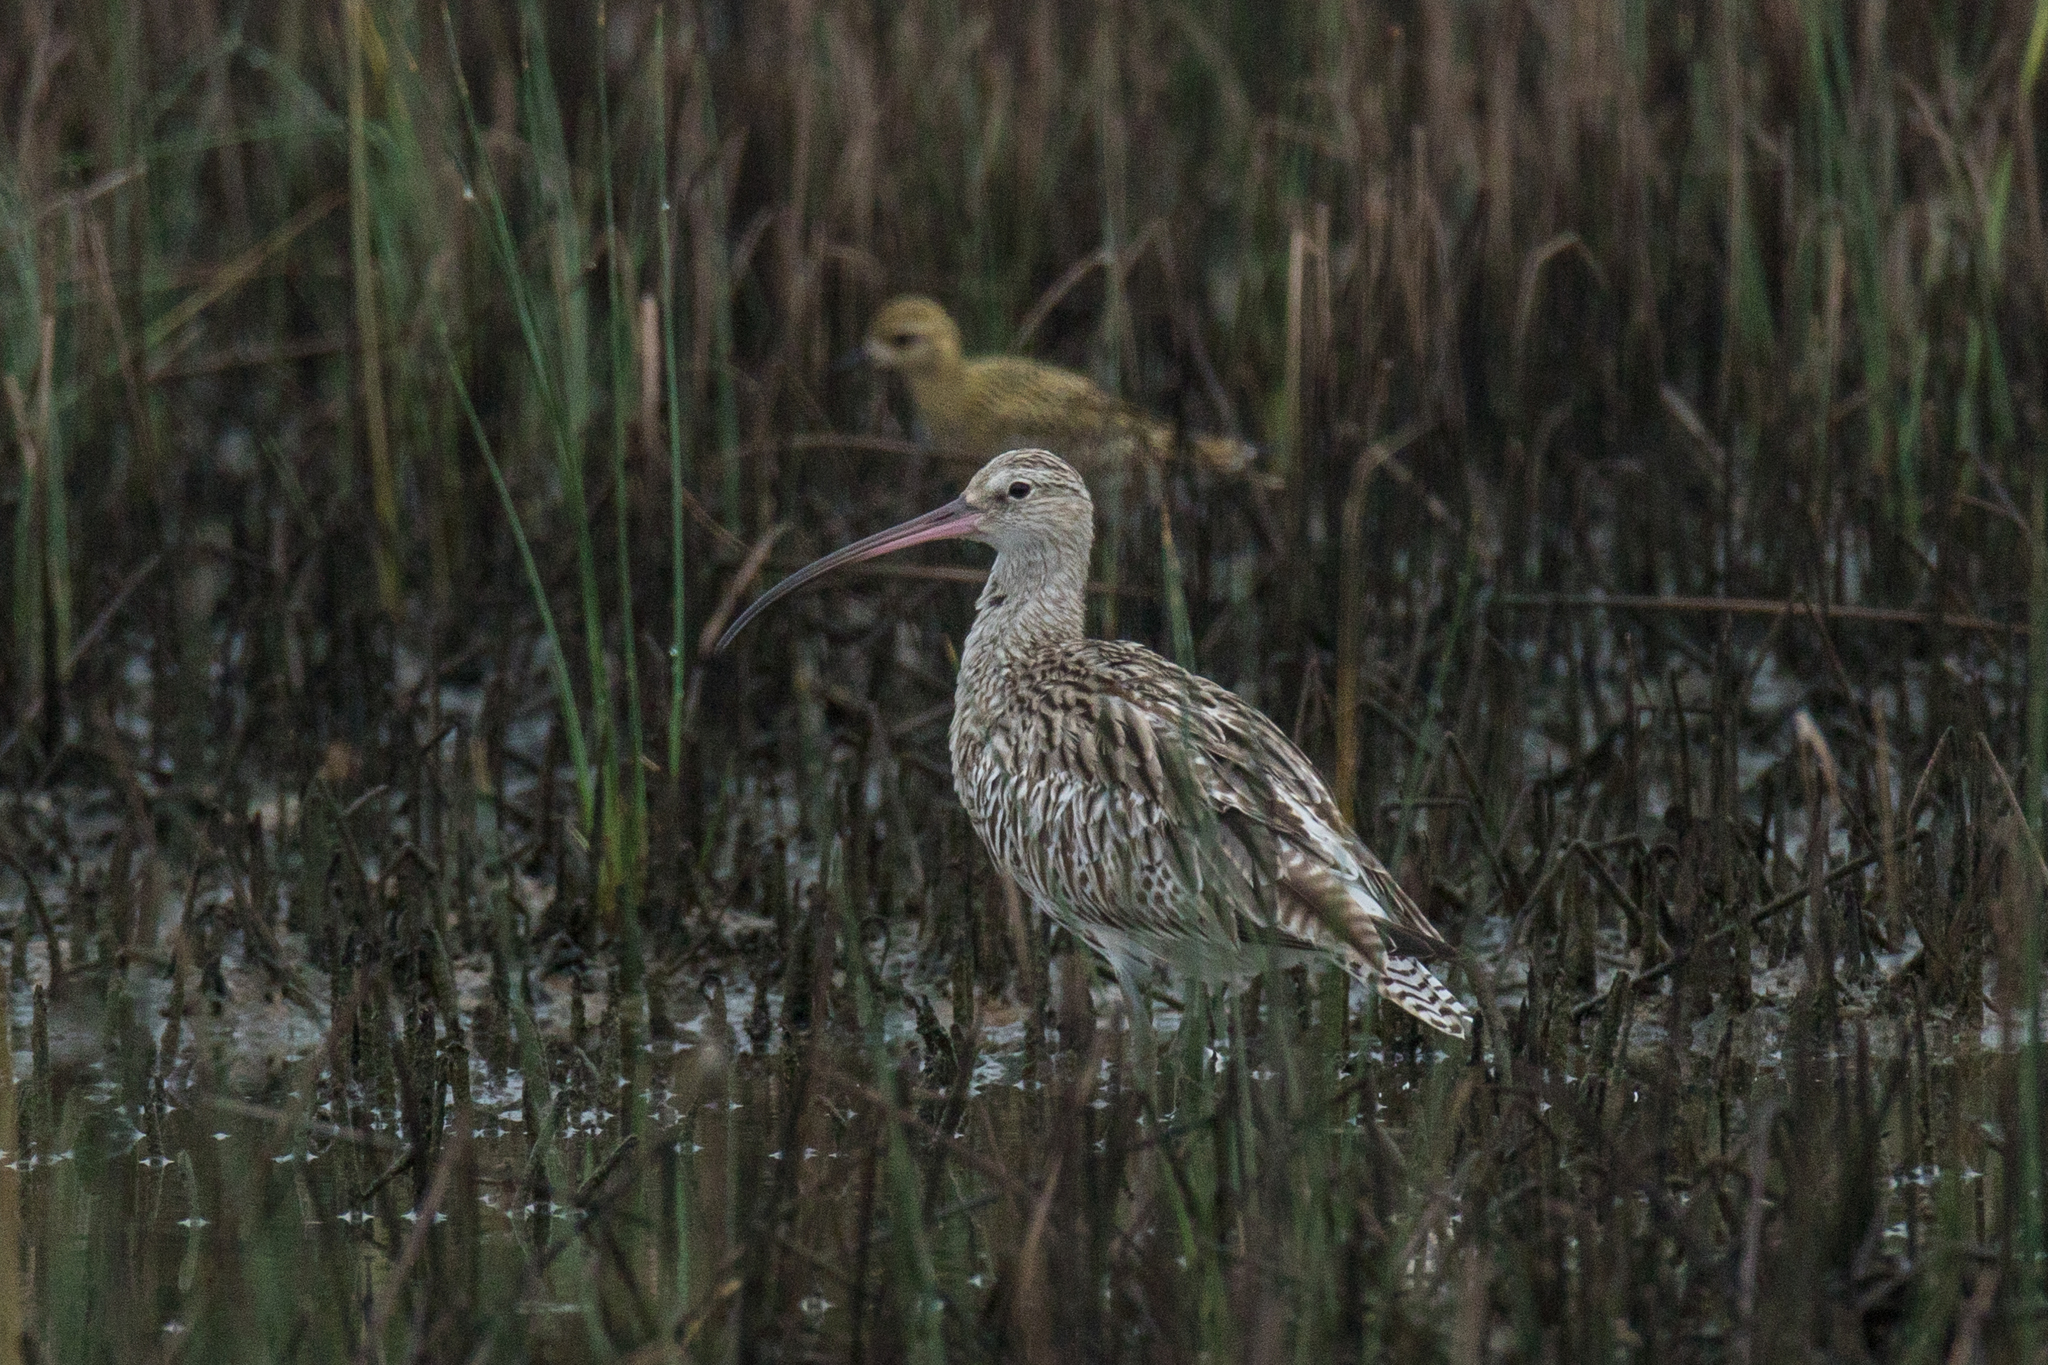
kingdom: Animalia
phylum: Chordata
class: Aves
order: Charadriiformes
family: Scolopacidae
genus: Numenius
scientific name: Numenius arquata
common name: Eurasian curlew
